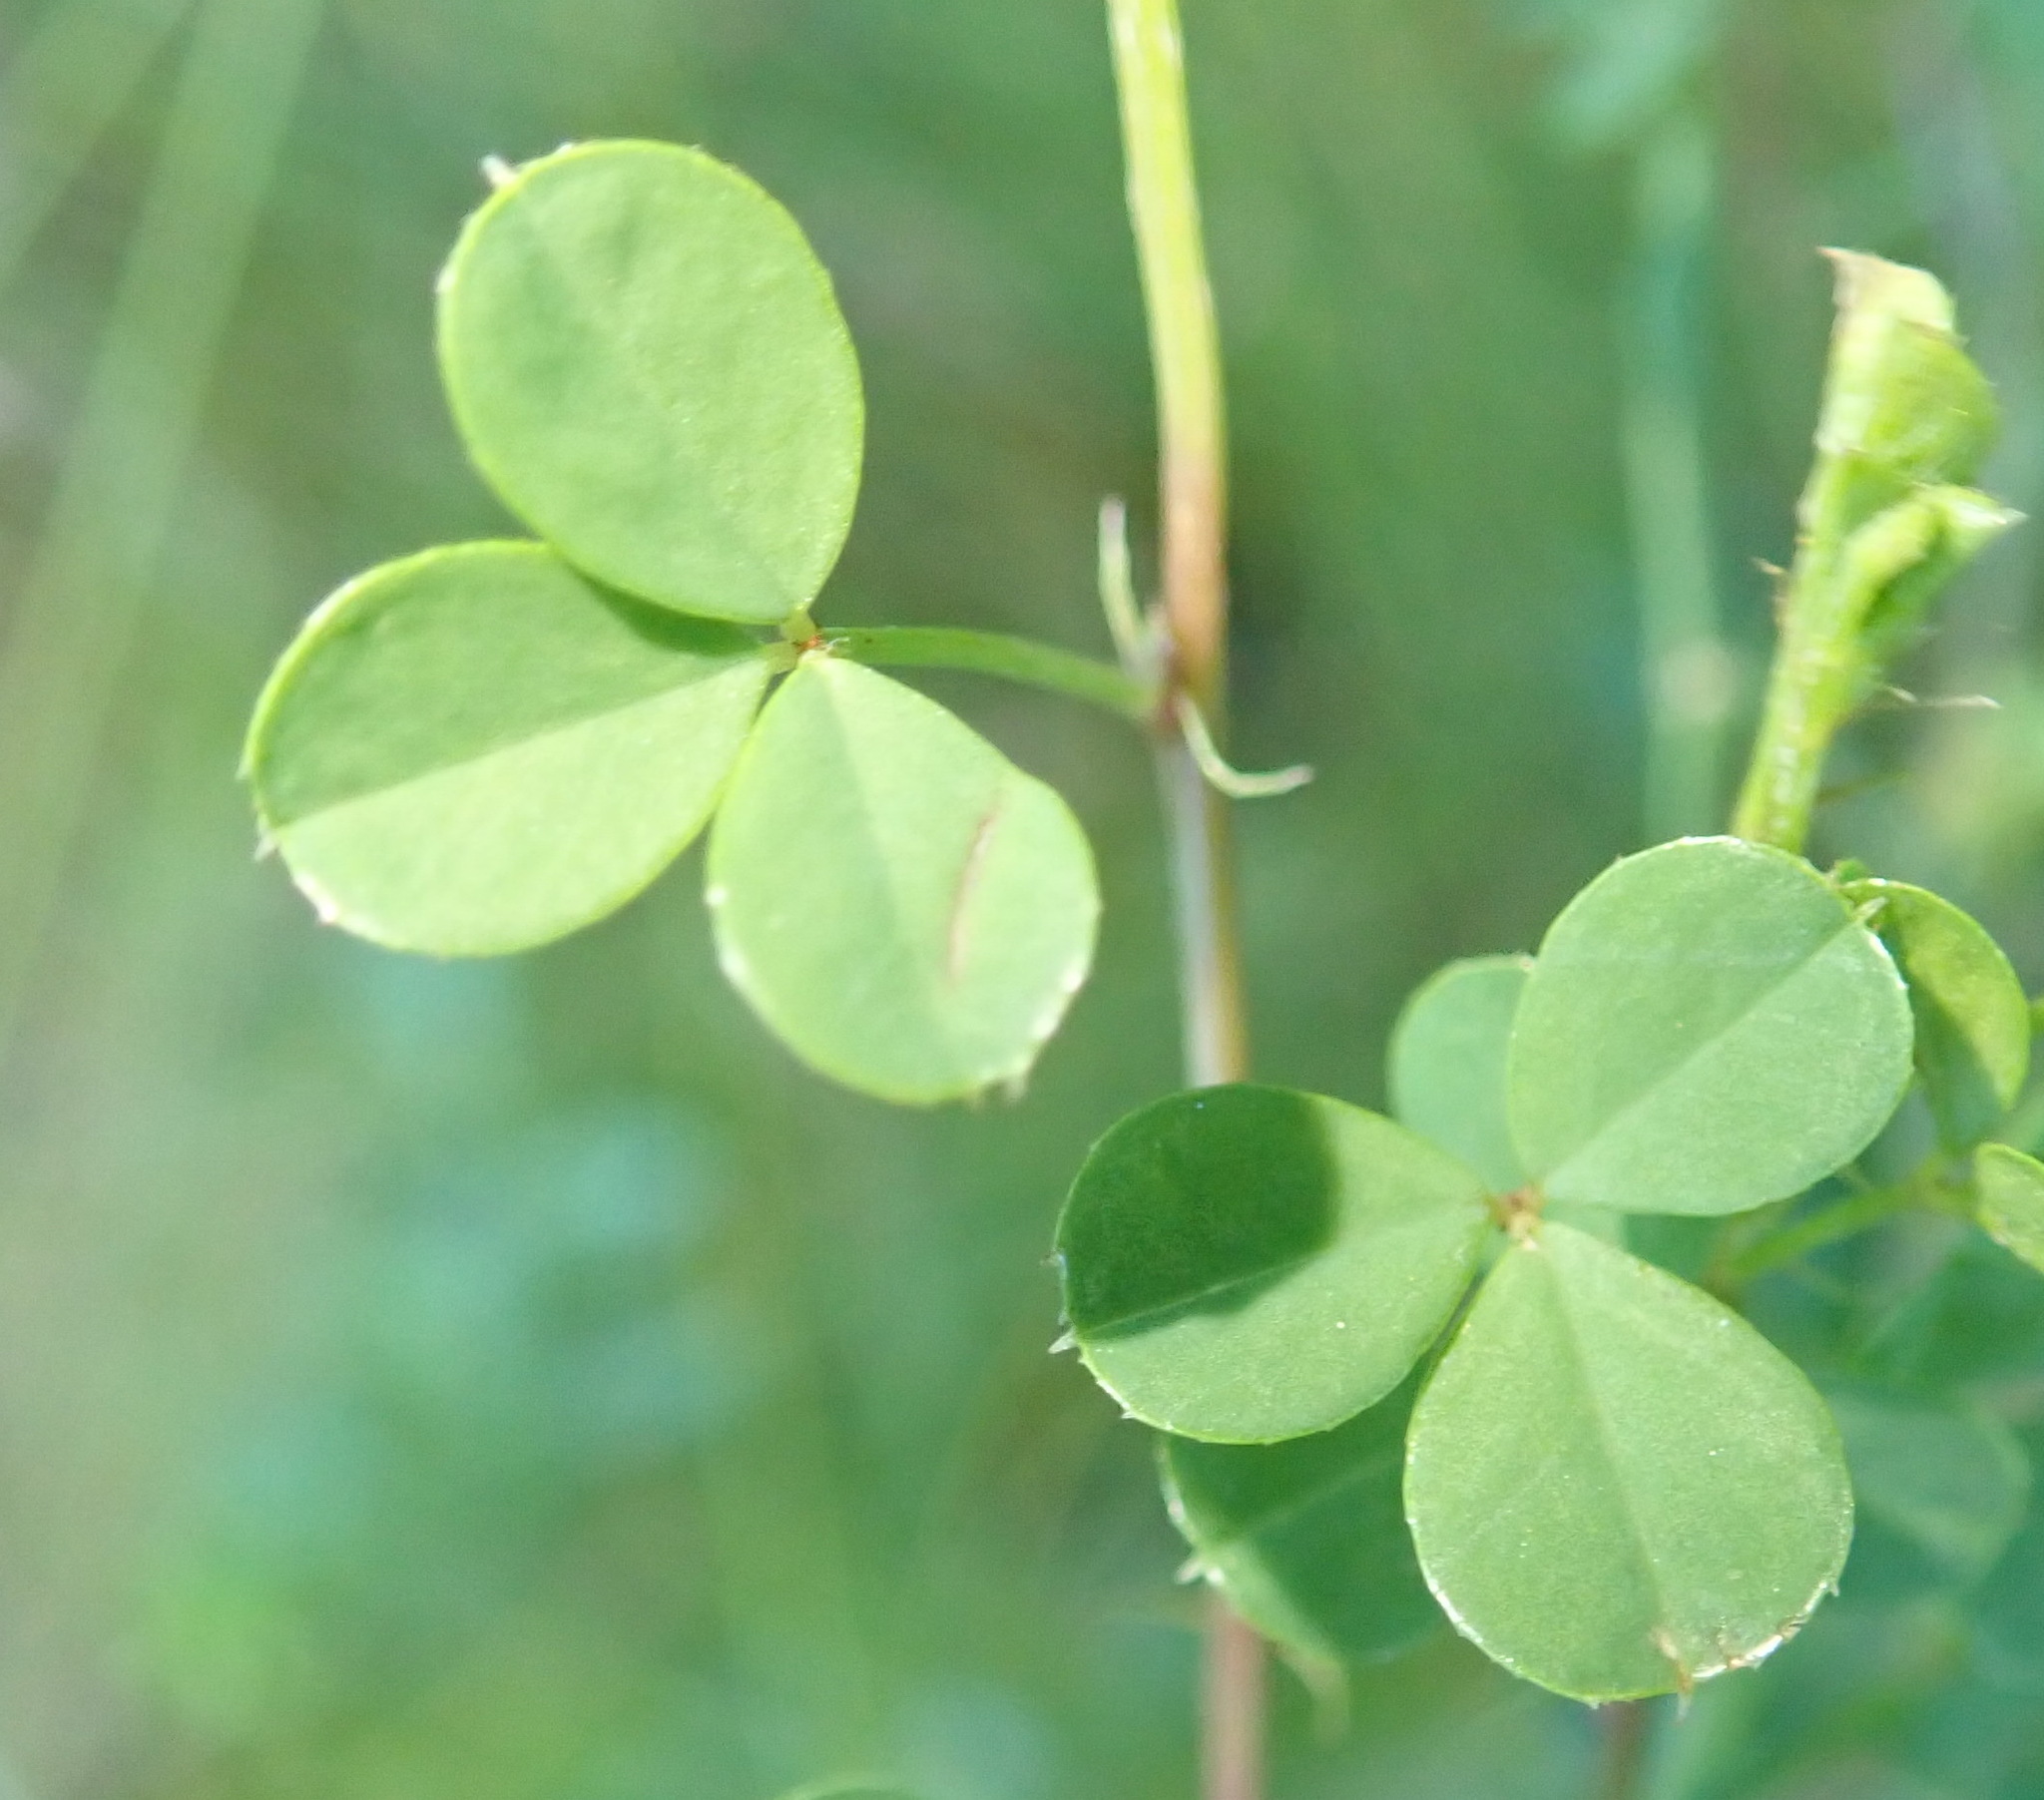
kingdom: Plantae
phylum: Tracheophyta
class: Magnoliopsida
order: Fabales
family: Fabaceae
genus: Indigofera
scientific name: Indigofera erecta
